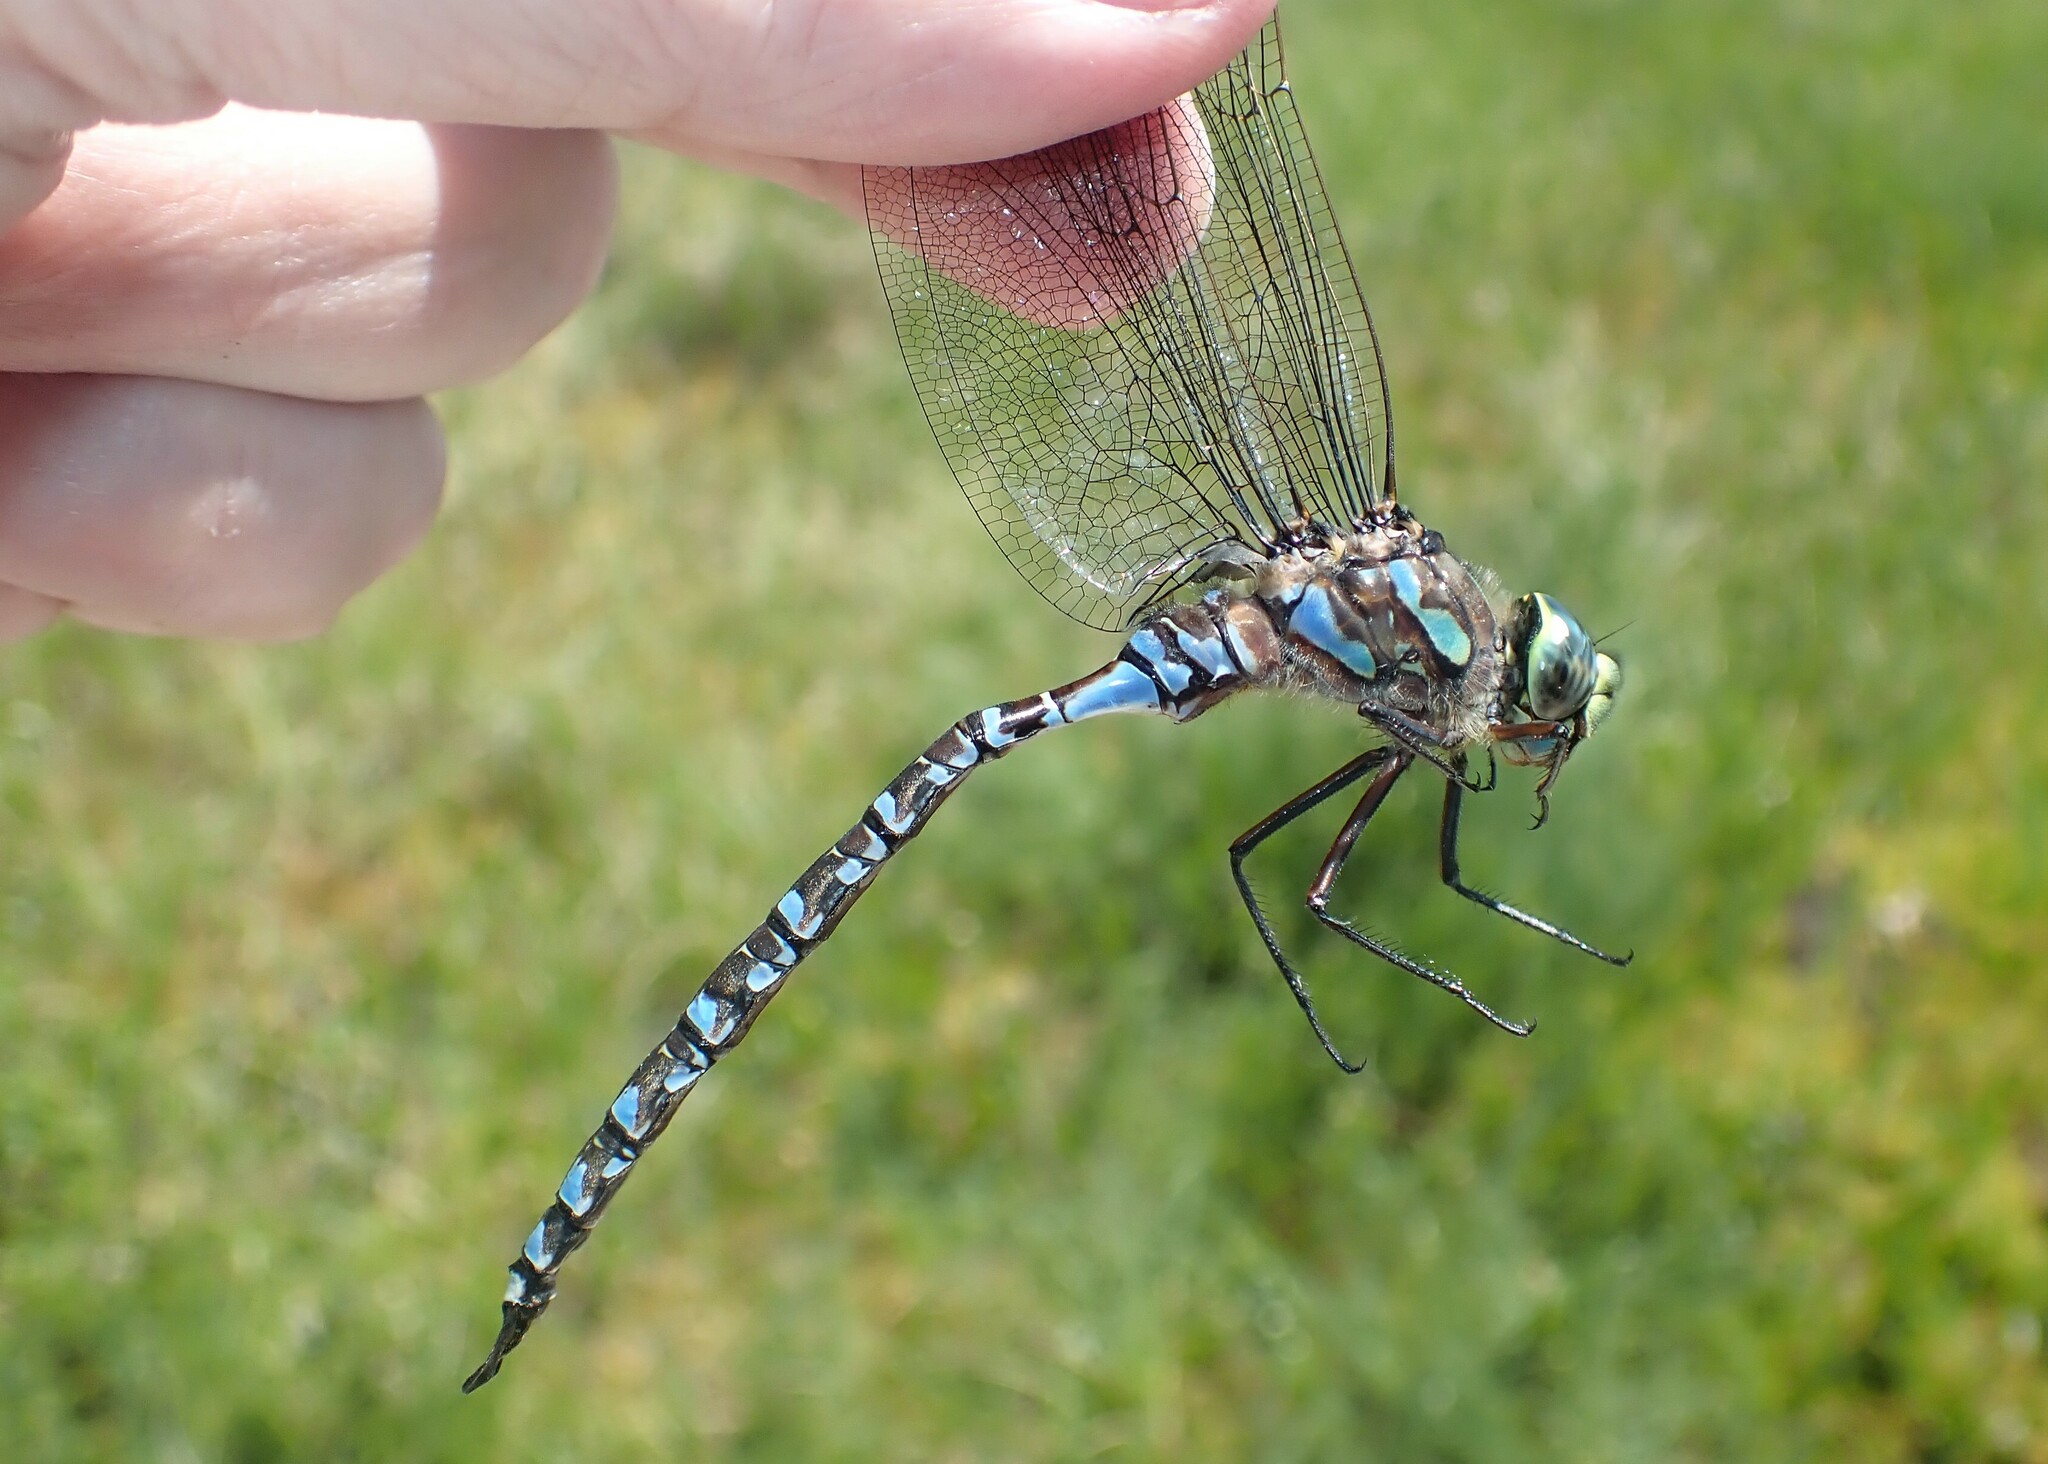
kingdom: Animalia
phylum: Arthropoda
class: Insecta
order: Odonata
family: Aeshnidae
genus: Aeshna
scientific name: Aeshna eremita
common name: Lake darner
